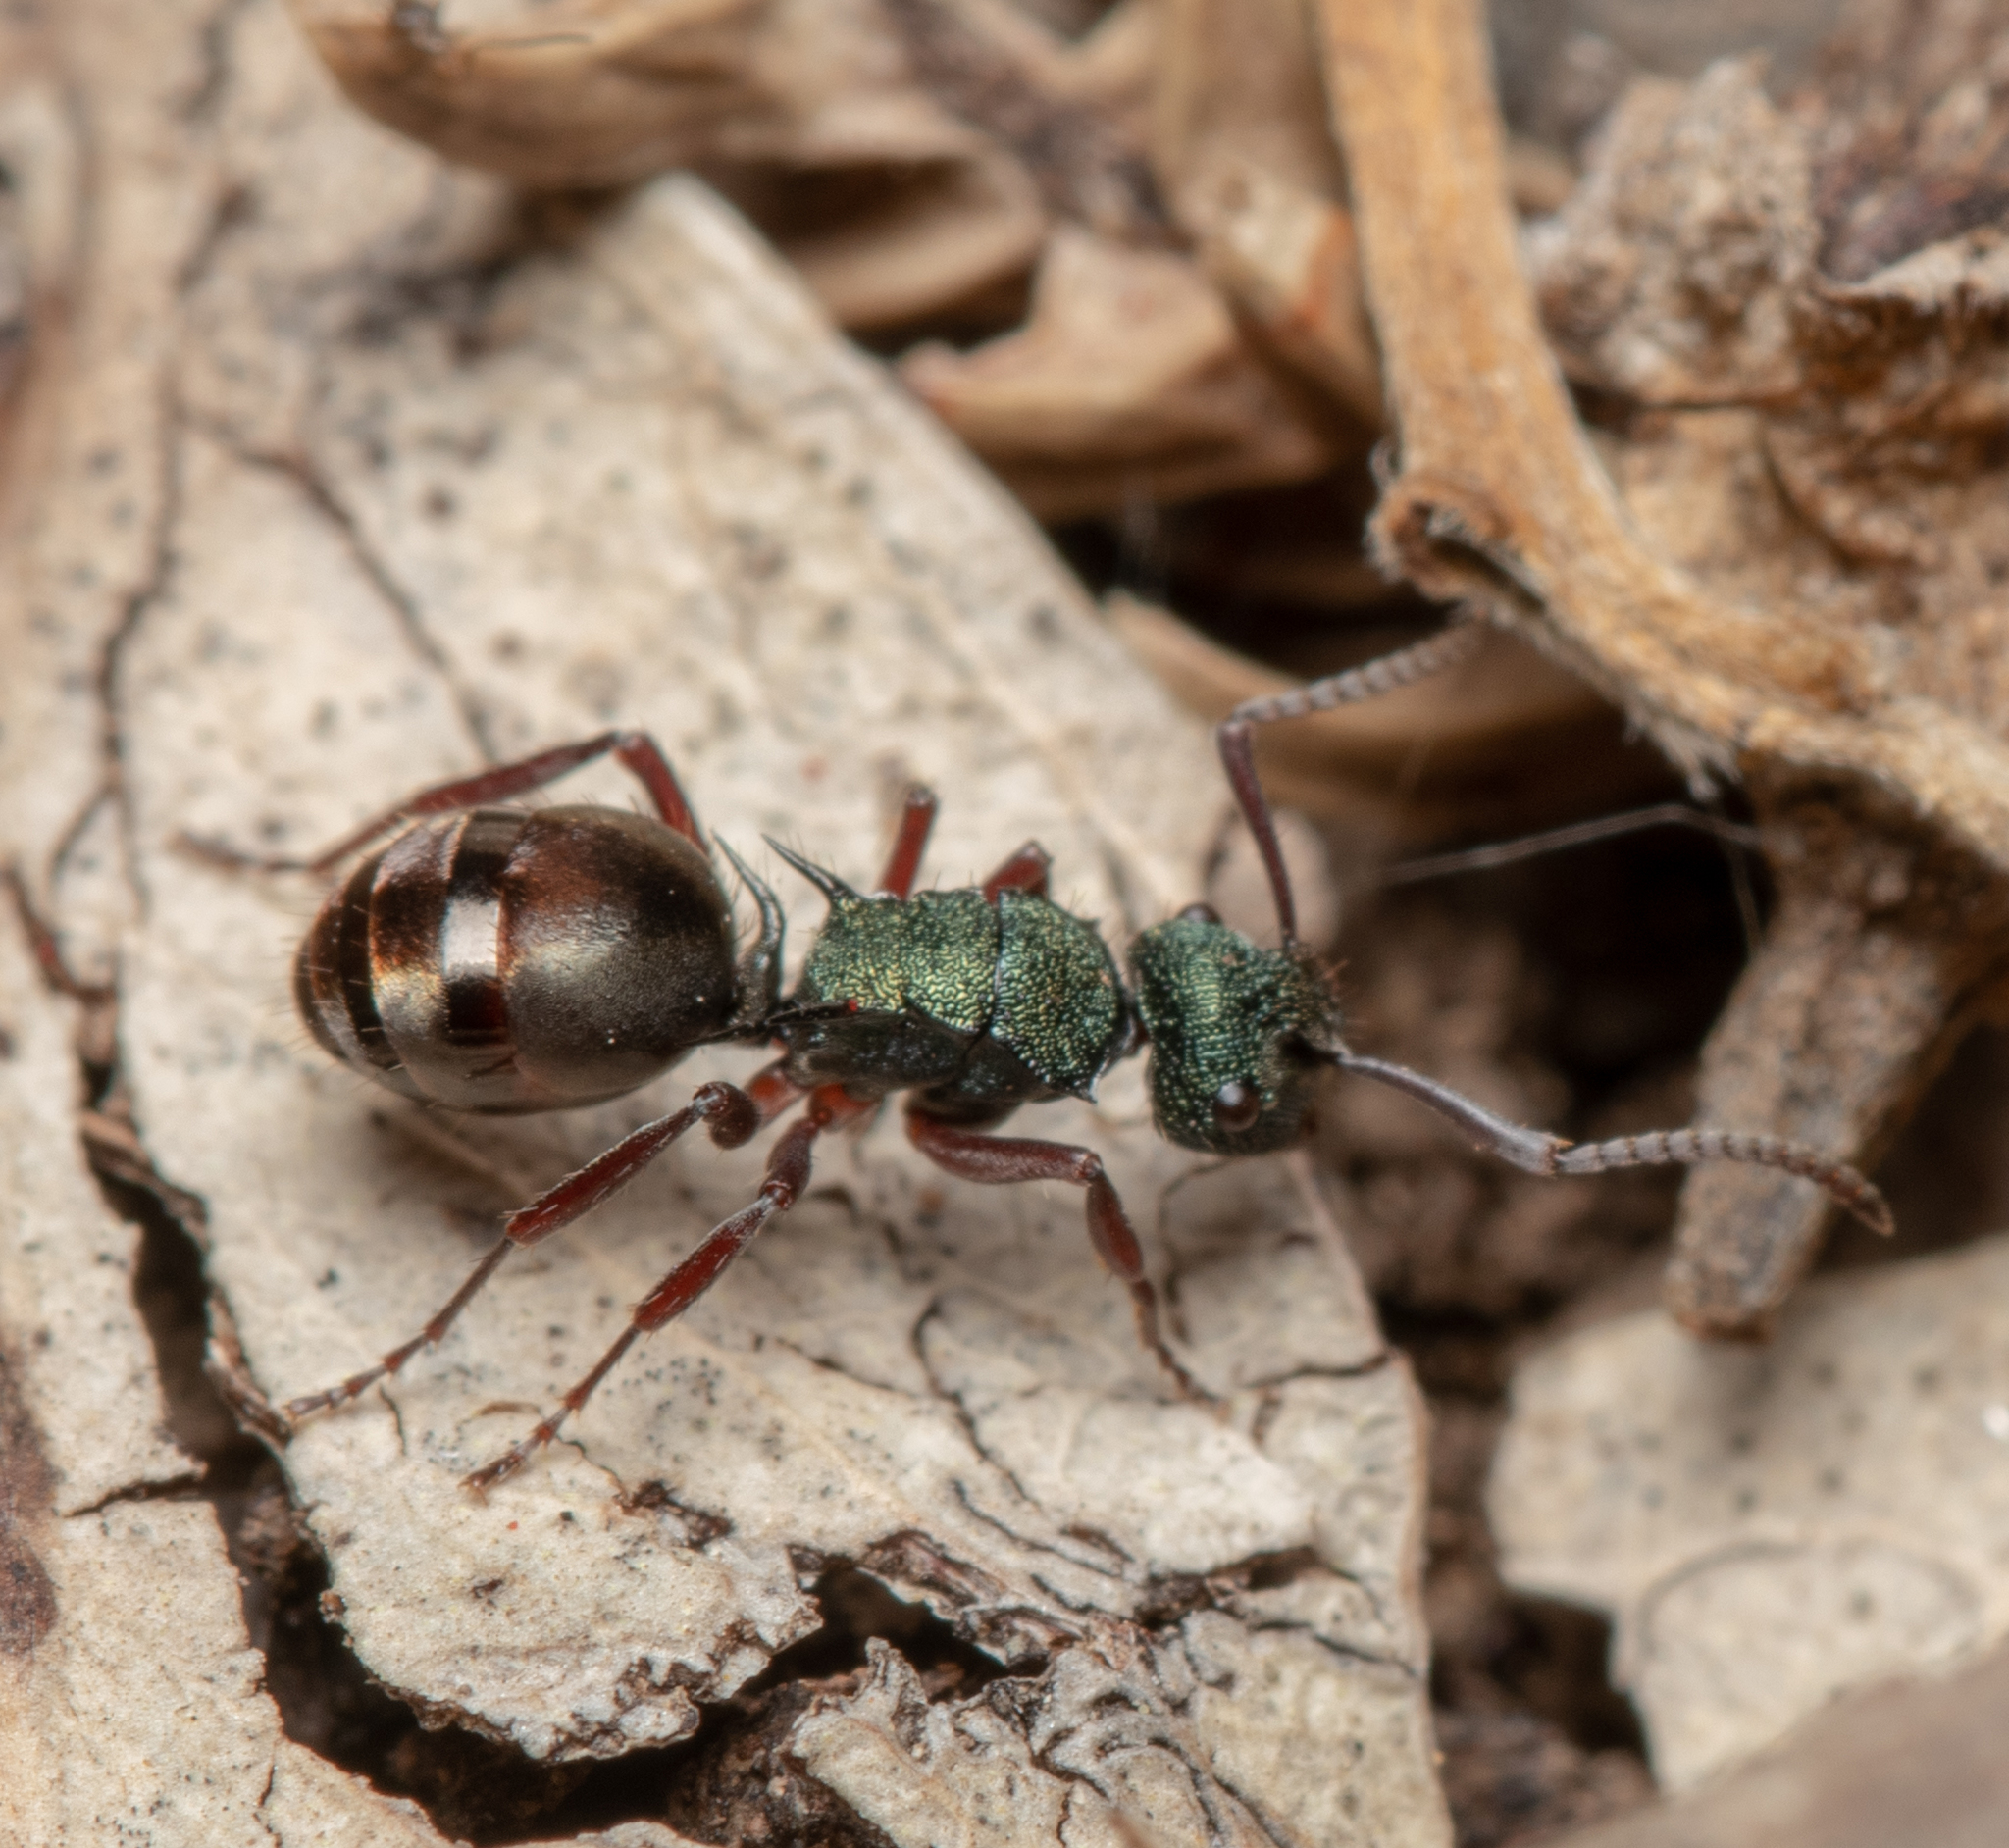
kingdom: Animalia
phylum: Arthropoda
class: Insecta
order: Hymenoptera
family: Formicidae
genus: Polyrhachis
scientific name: Polyrhachis hookeri
